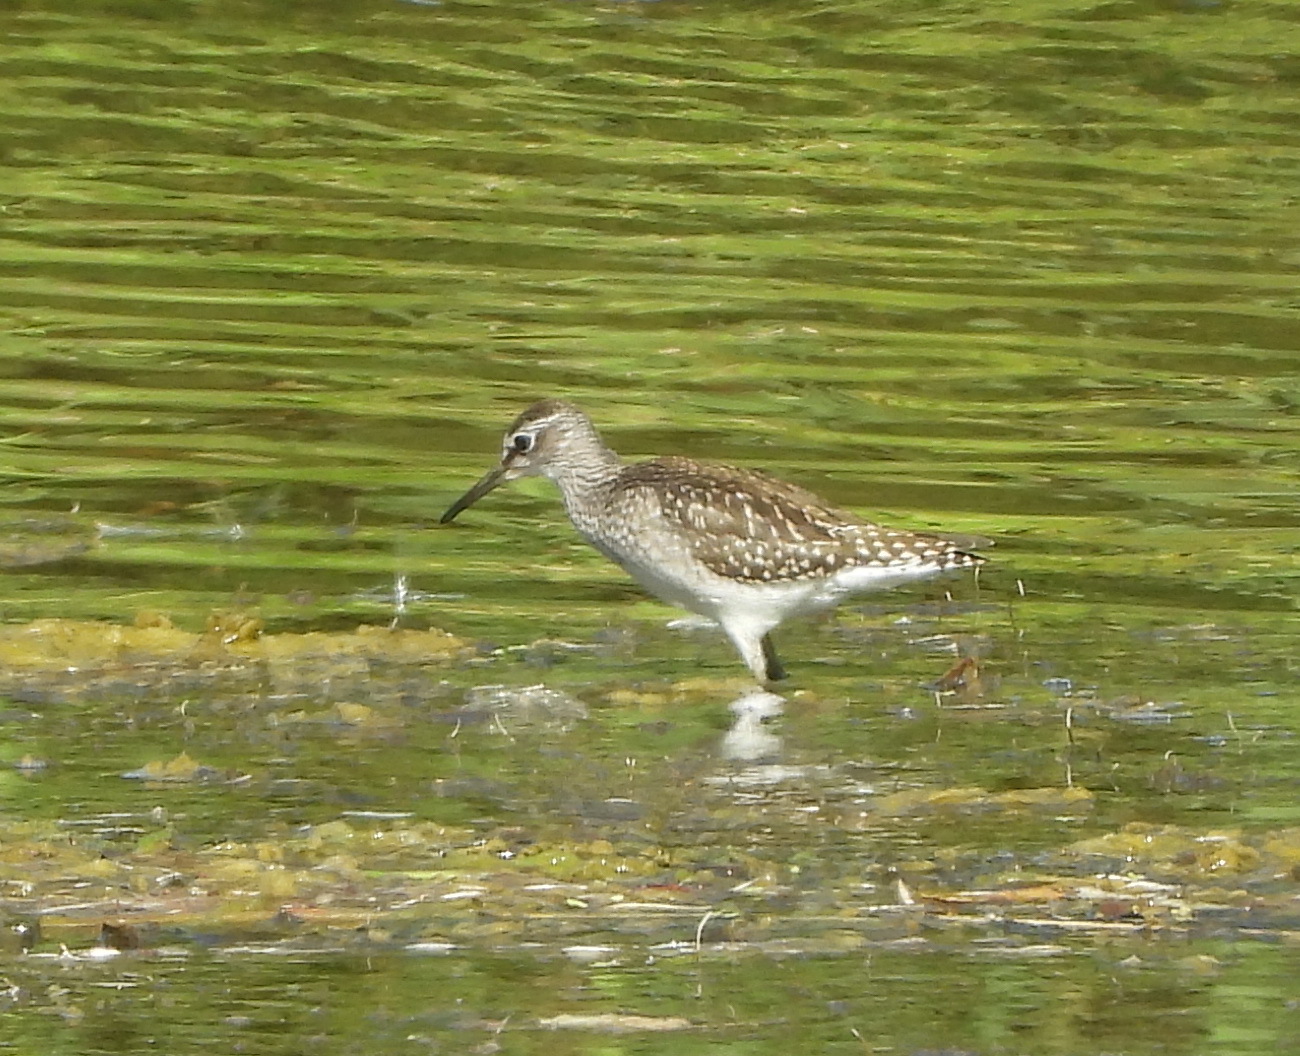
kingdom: Animalia
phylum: Chordata
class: Aves
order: Charadriiformes
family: Scolopacidae
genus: Tringa
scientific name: Tringa glareola
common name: Wood sandpiper
